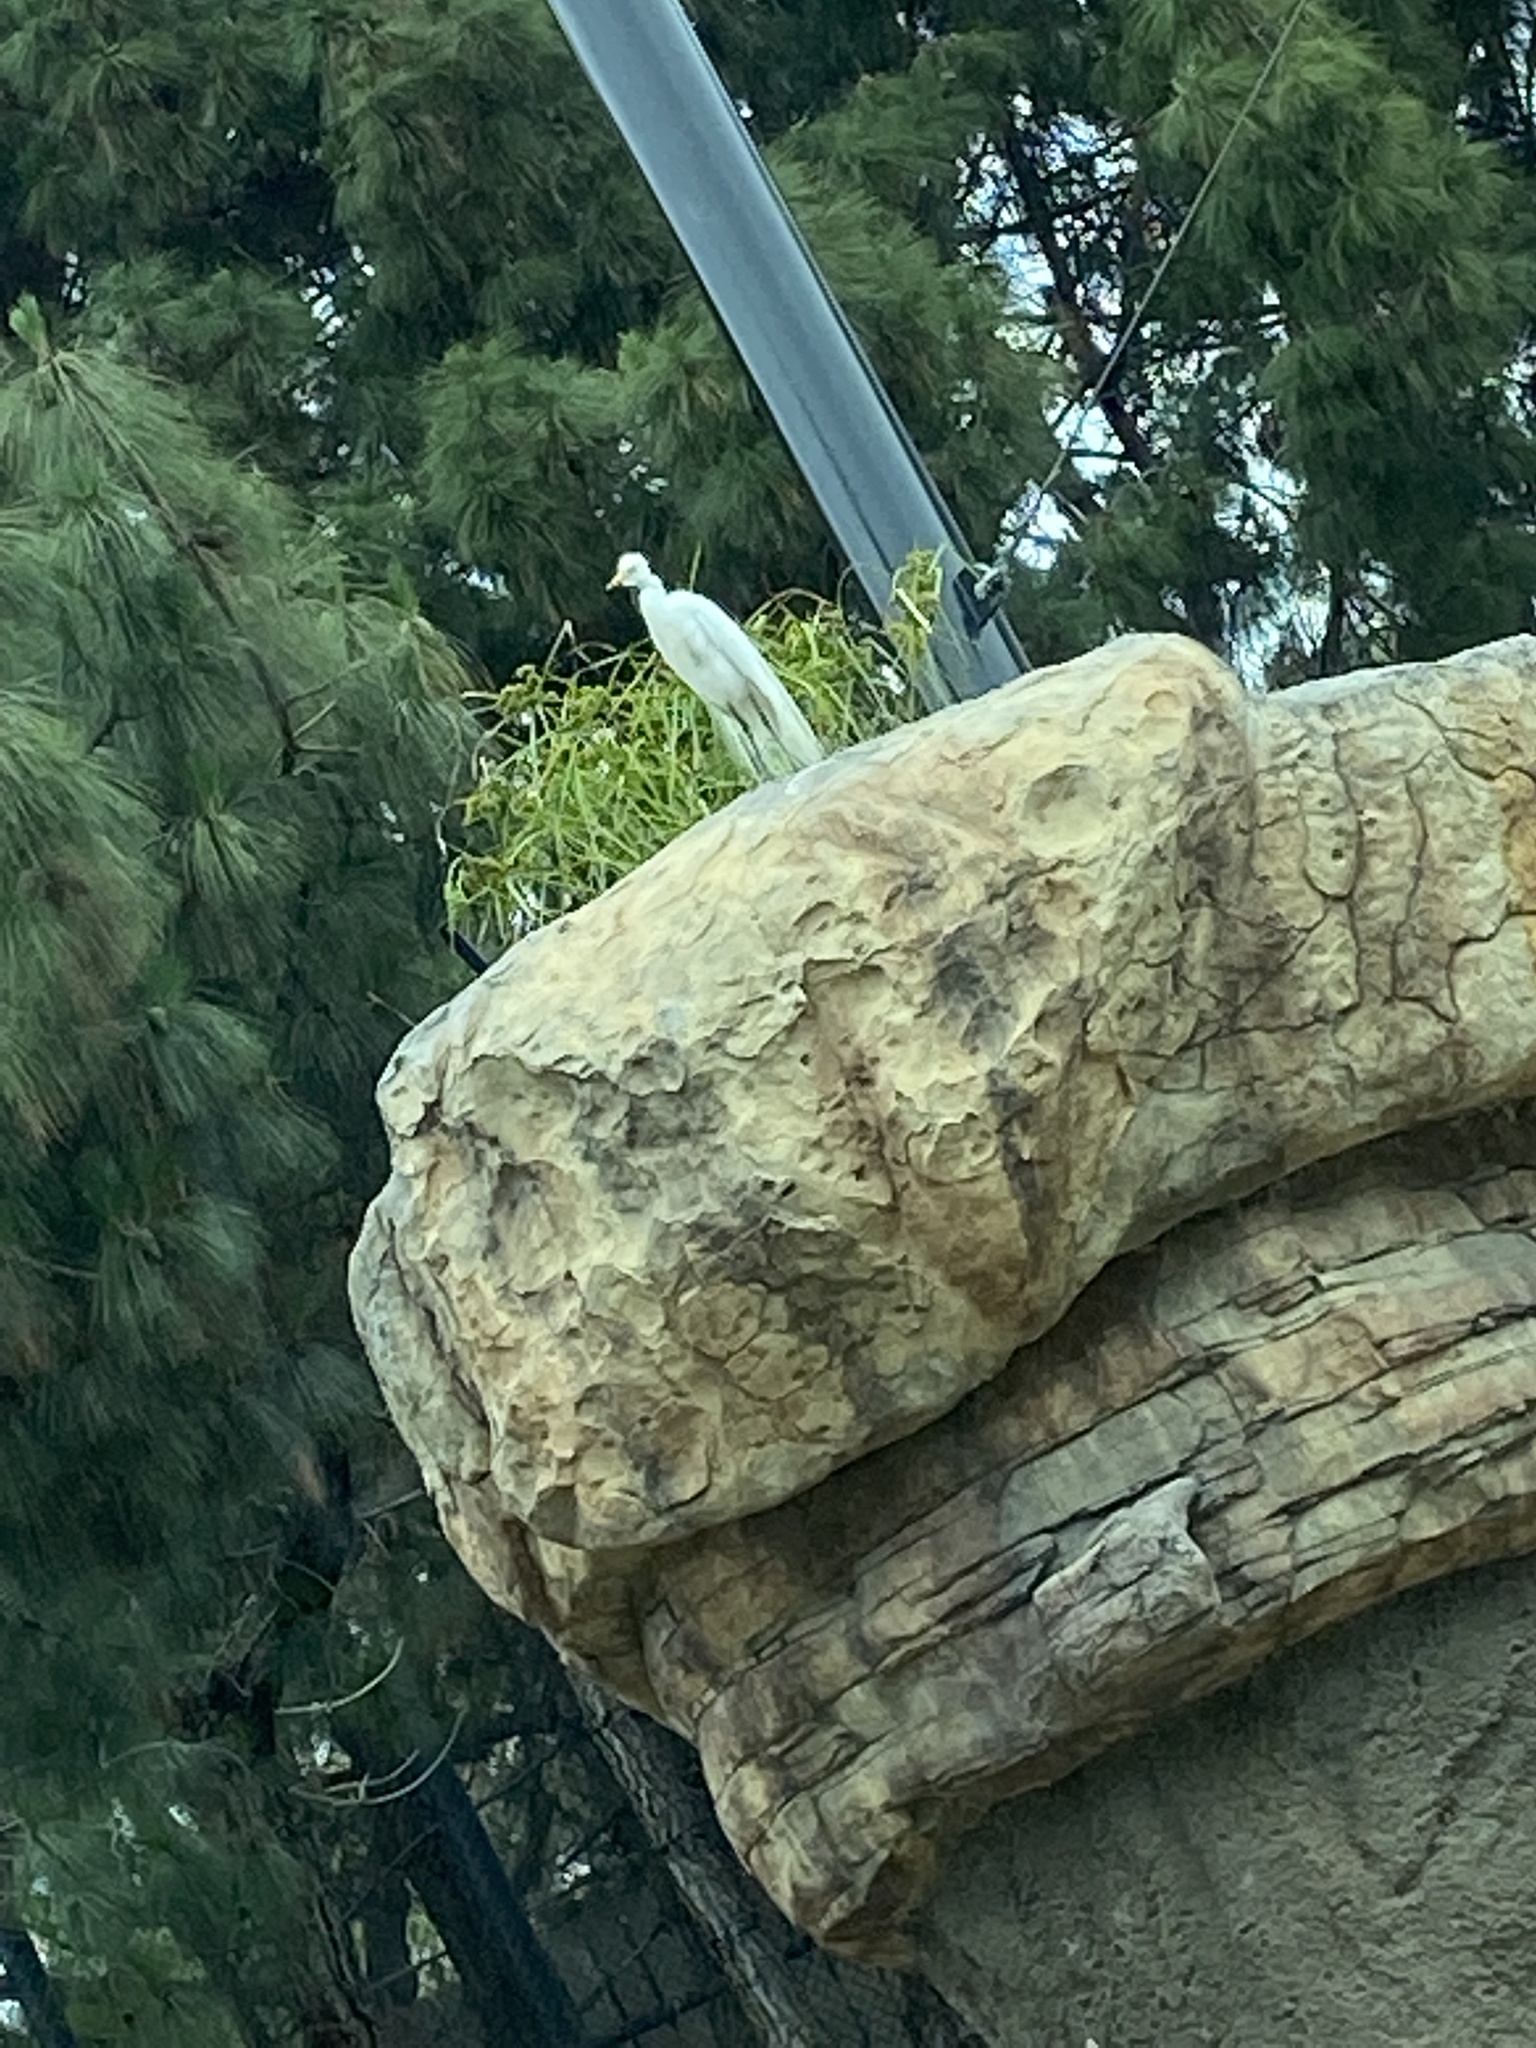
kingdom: Animalia
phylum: Chordata
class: Aves
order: Pelecaniformes
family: Ardeidae
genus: Bubulcus
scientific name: Bubulcus ibis
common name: Cattle egret
